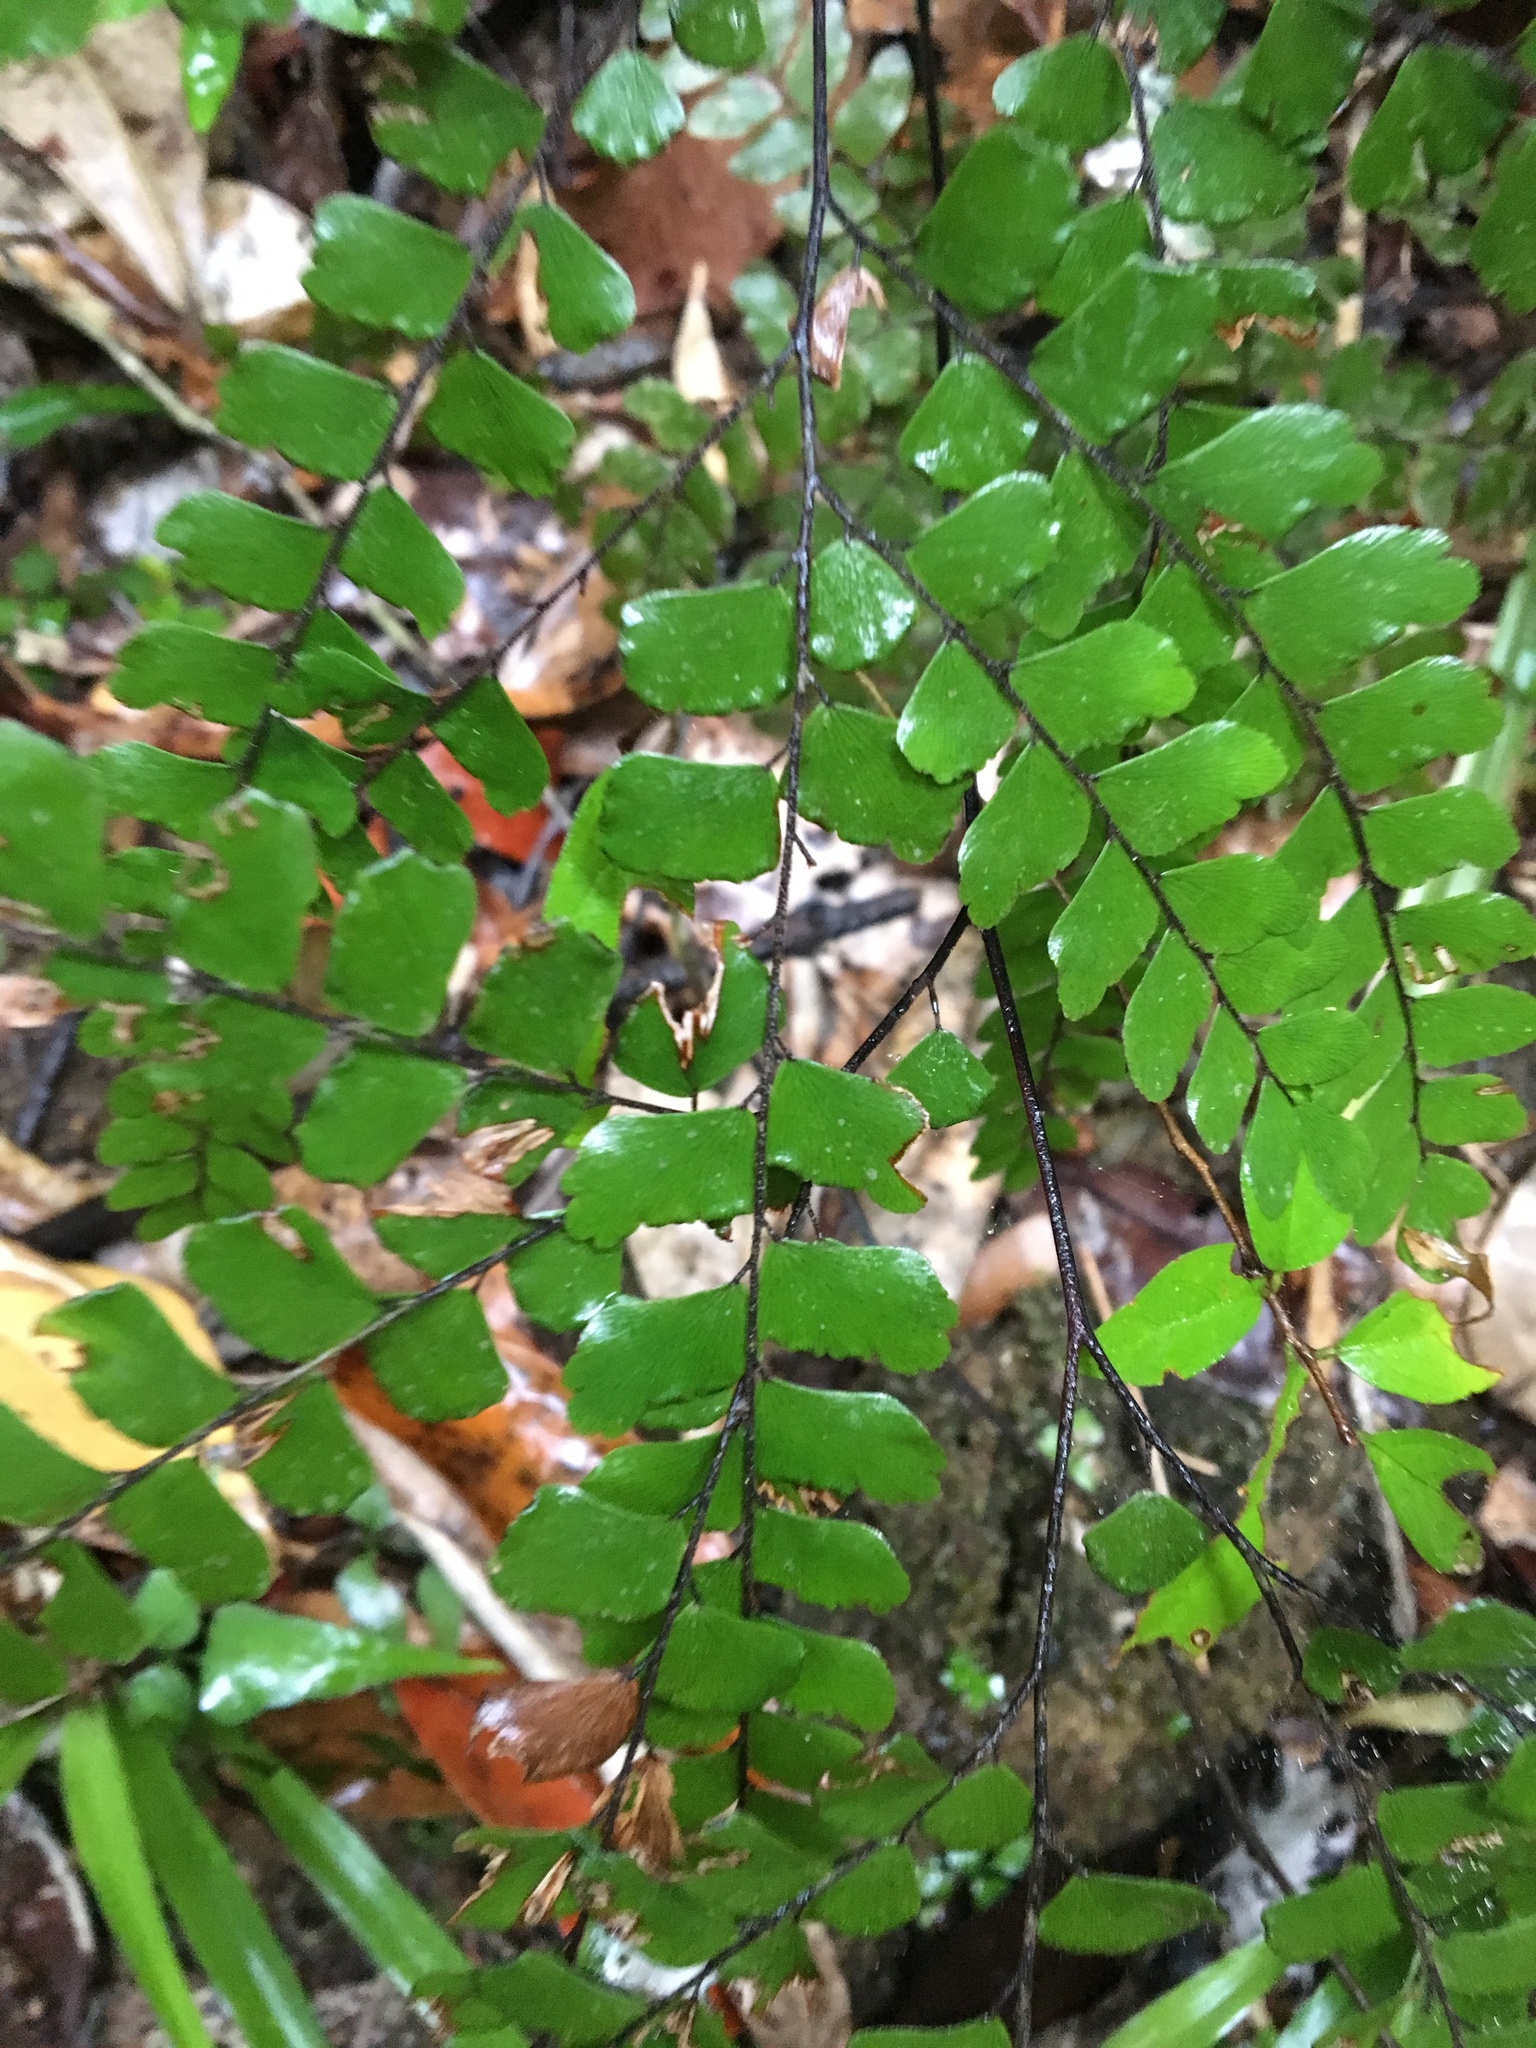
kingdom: Plantae
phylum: Tracheophyta
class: Polypodiopsida
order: Polypodiales
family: Pteridaceae
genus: Adiantum
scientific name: Adiantum flabellulatum
